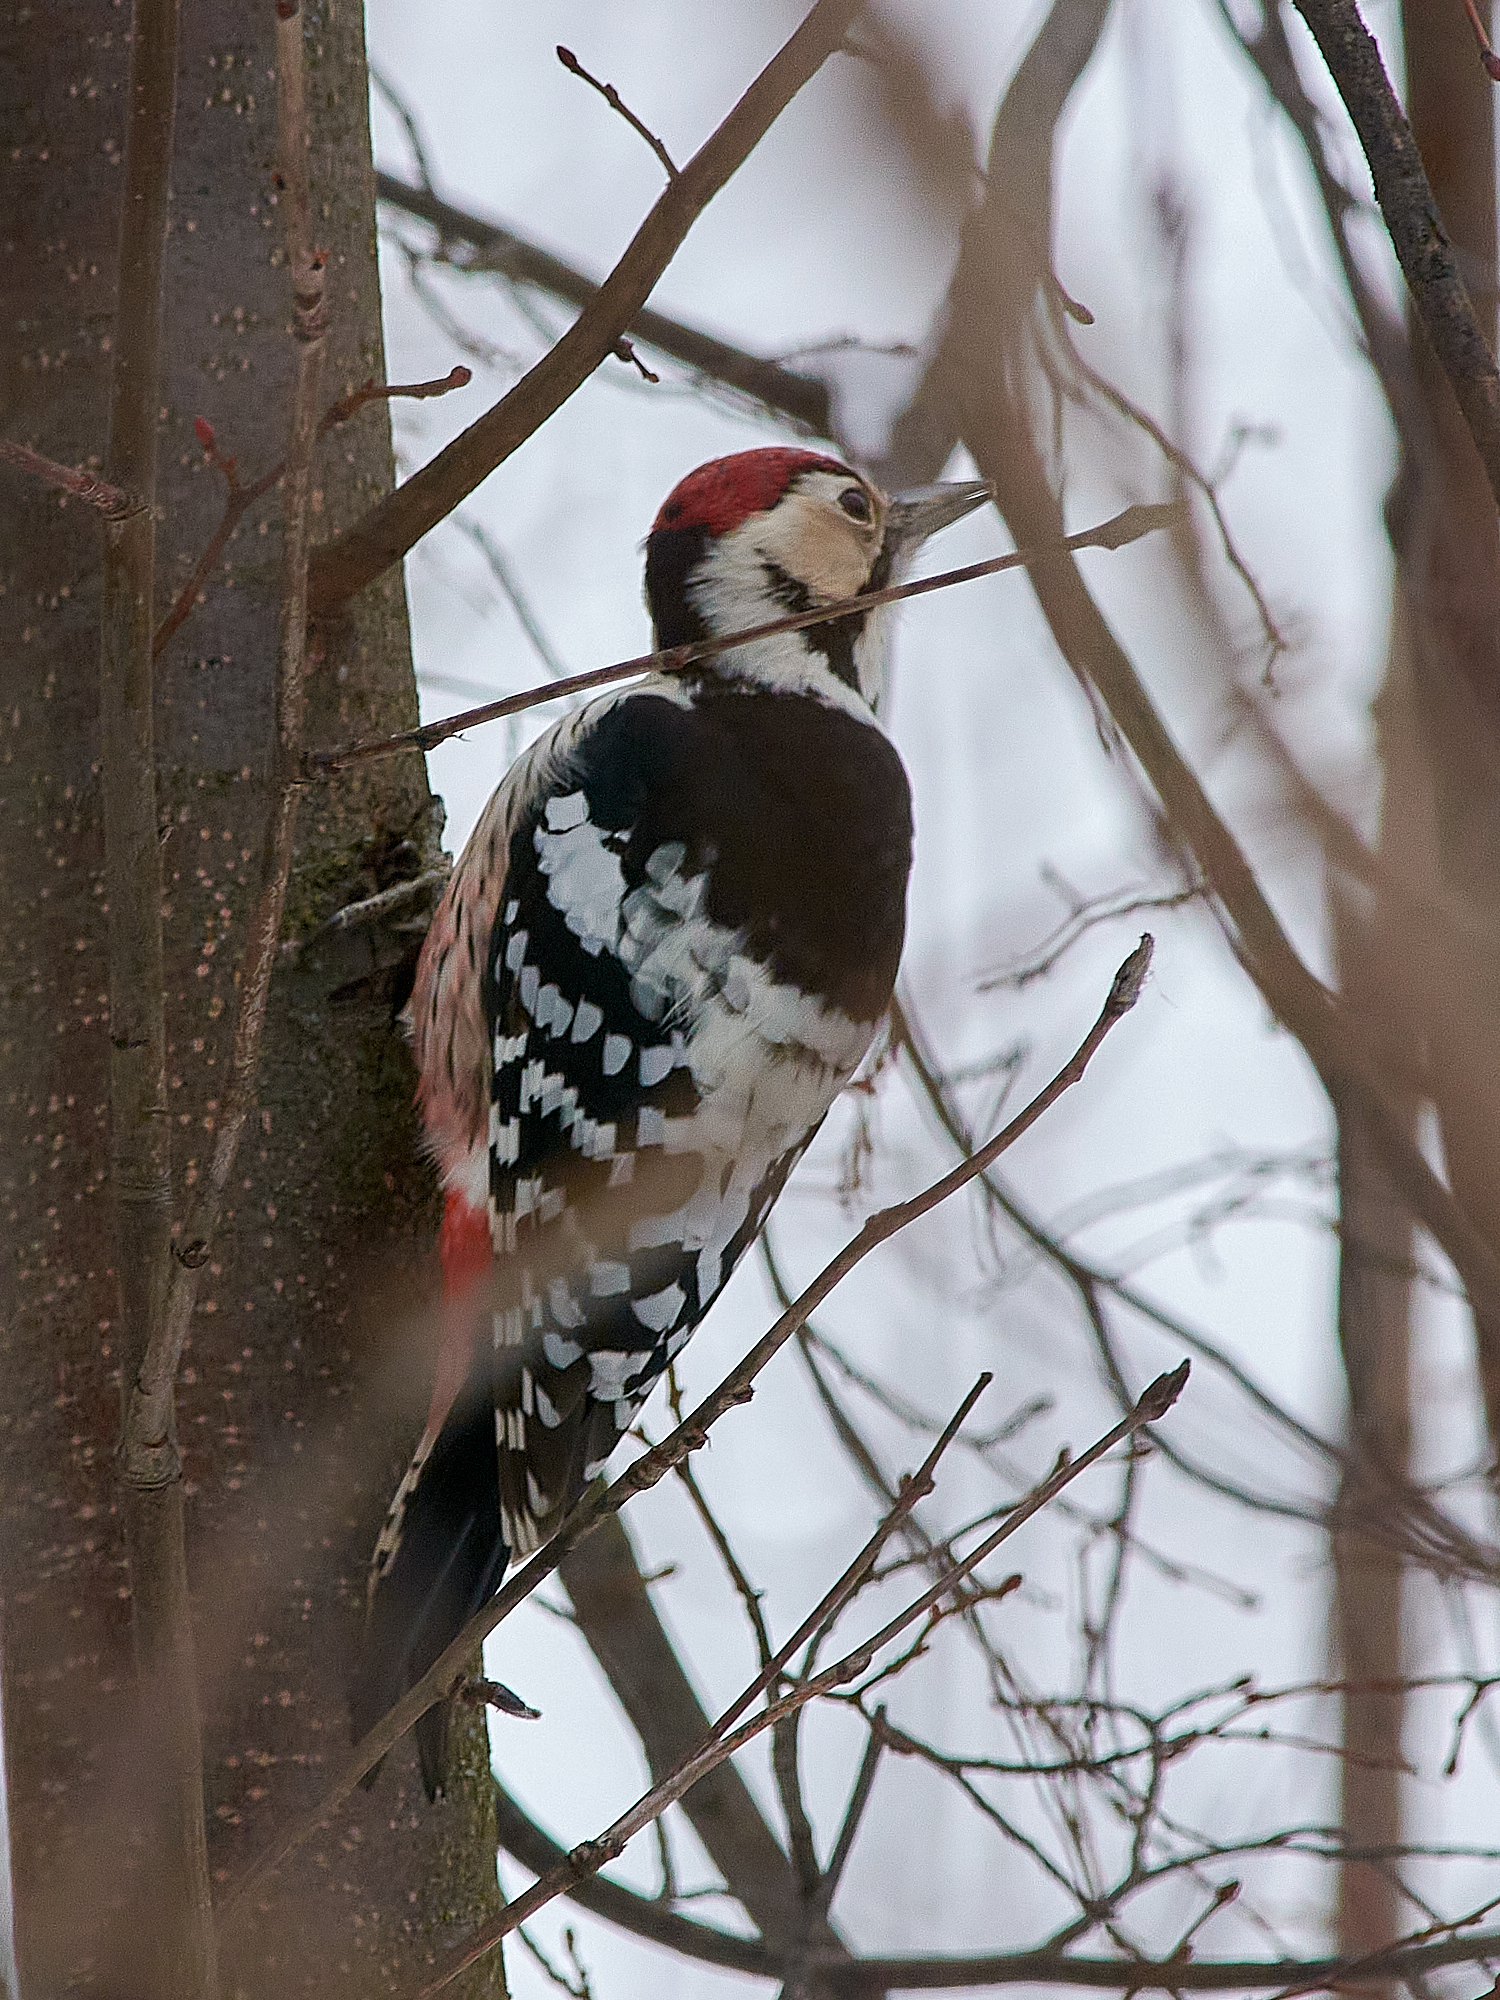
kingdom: Animalia
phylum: Chordata
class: Aves
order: Piciformes
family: Picidae
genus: Dendrocopos
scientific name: Dendrocopos leucotos
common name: White-backed woodpecker
